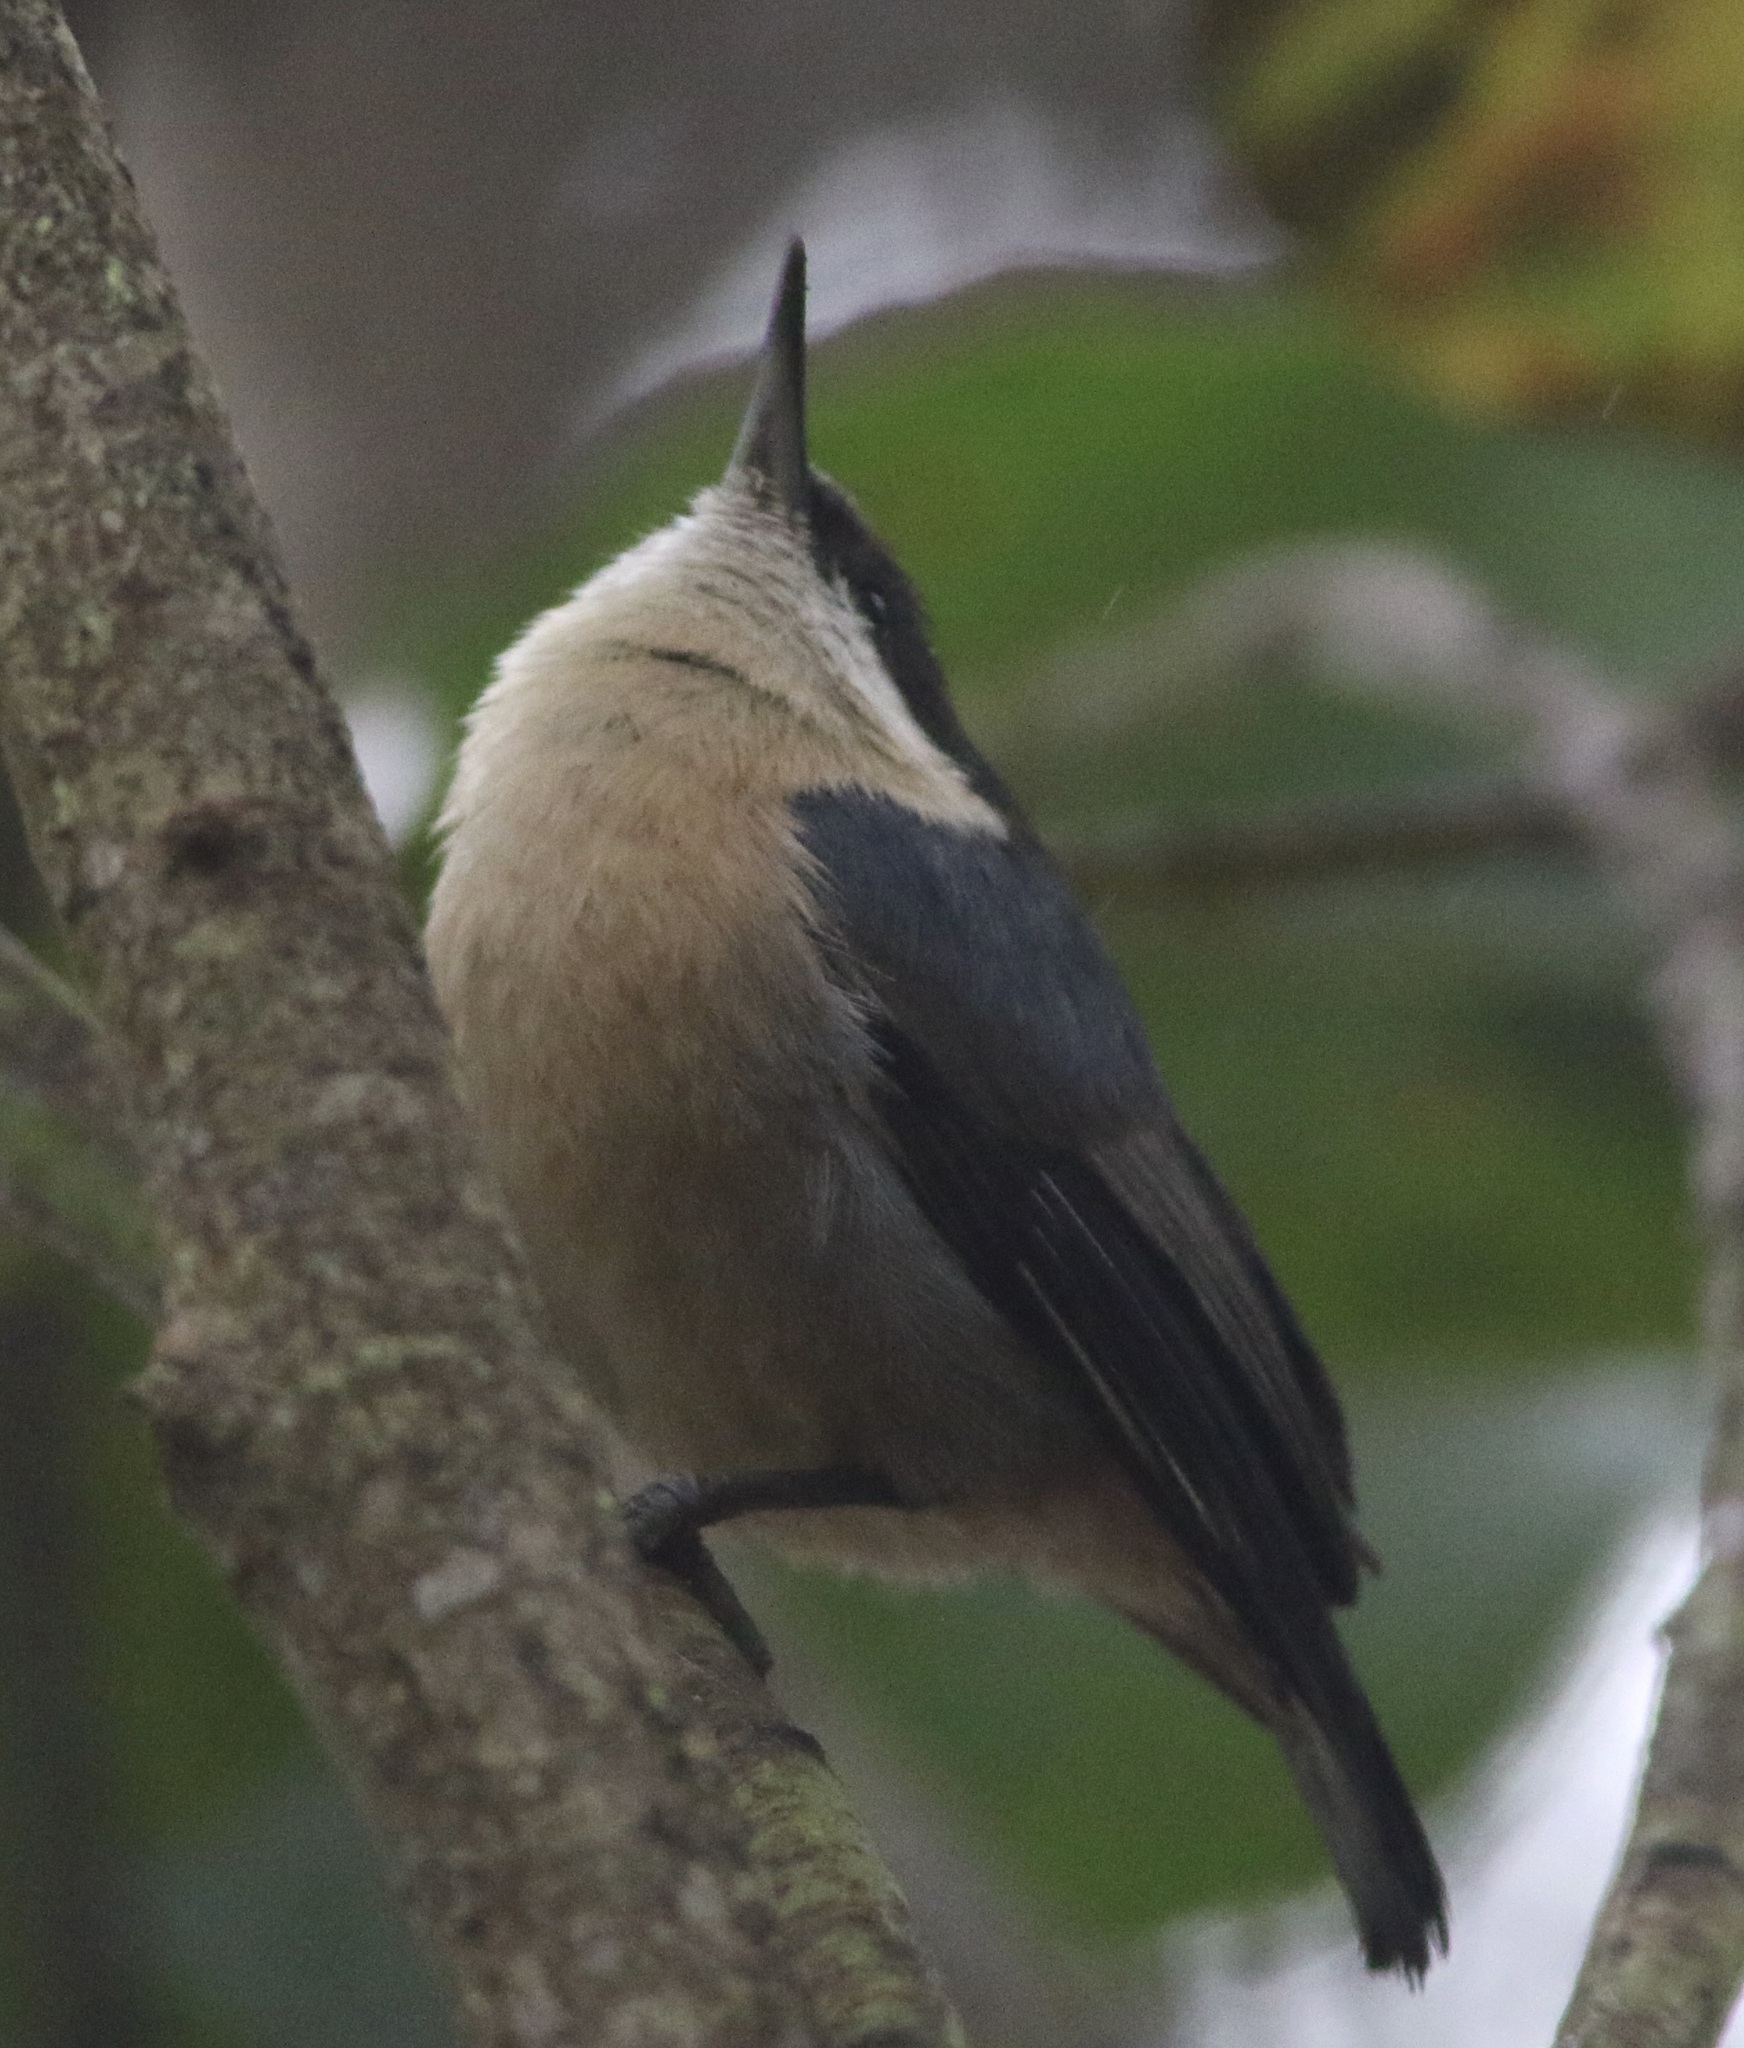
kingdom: Animalia
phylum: Chordata
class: Aves
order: Passeriformes
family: Sittidae
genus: Sitta
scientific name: Sitta pygmaea
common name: Pygmy nuthatch
